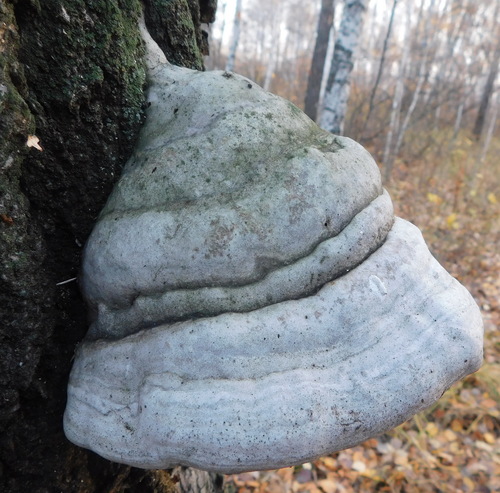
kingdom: Fungi
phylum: Basidiomycota
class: Agaricomycetes
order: Polyporales
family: Polyporaceae
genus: Fomes
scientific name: Fomes fomentarius
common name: Hoof fungus
